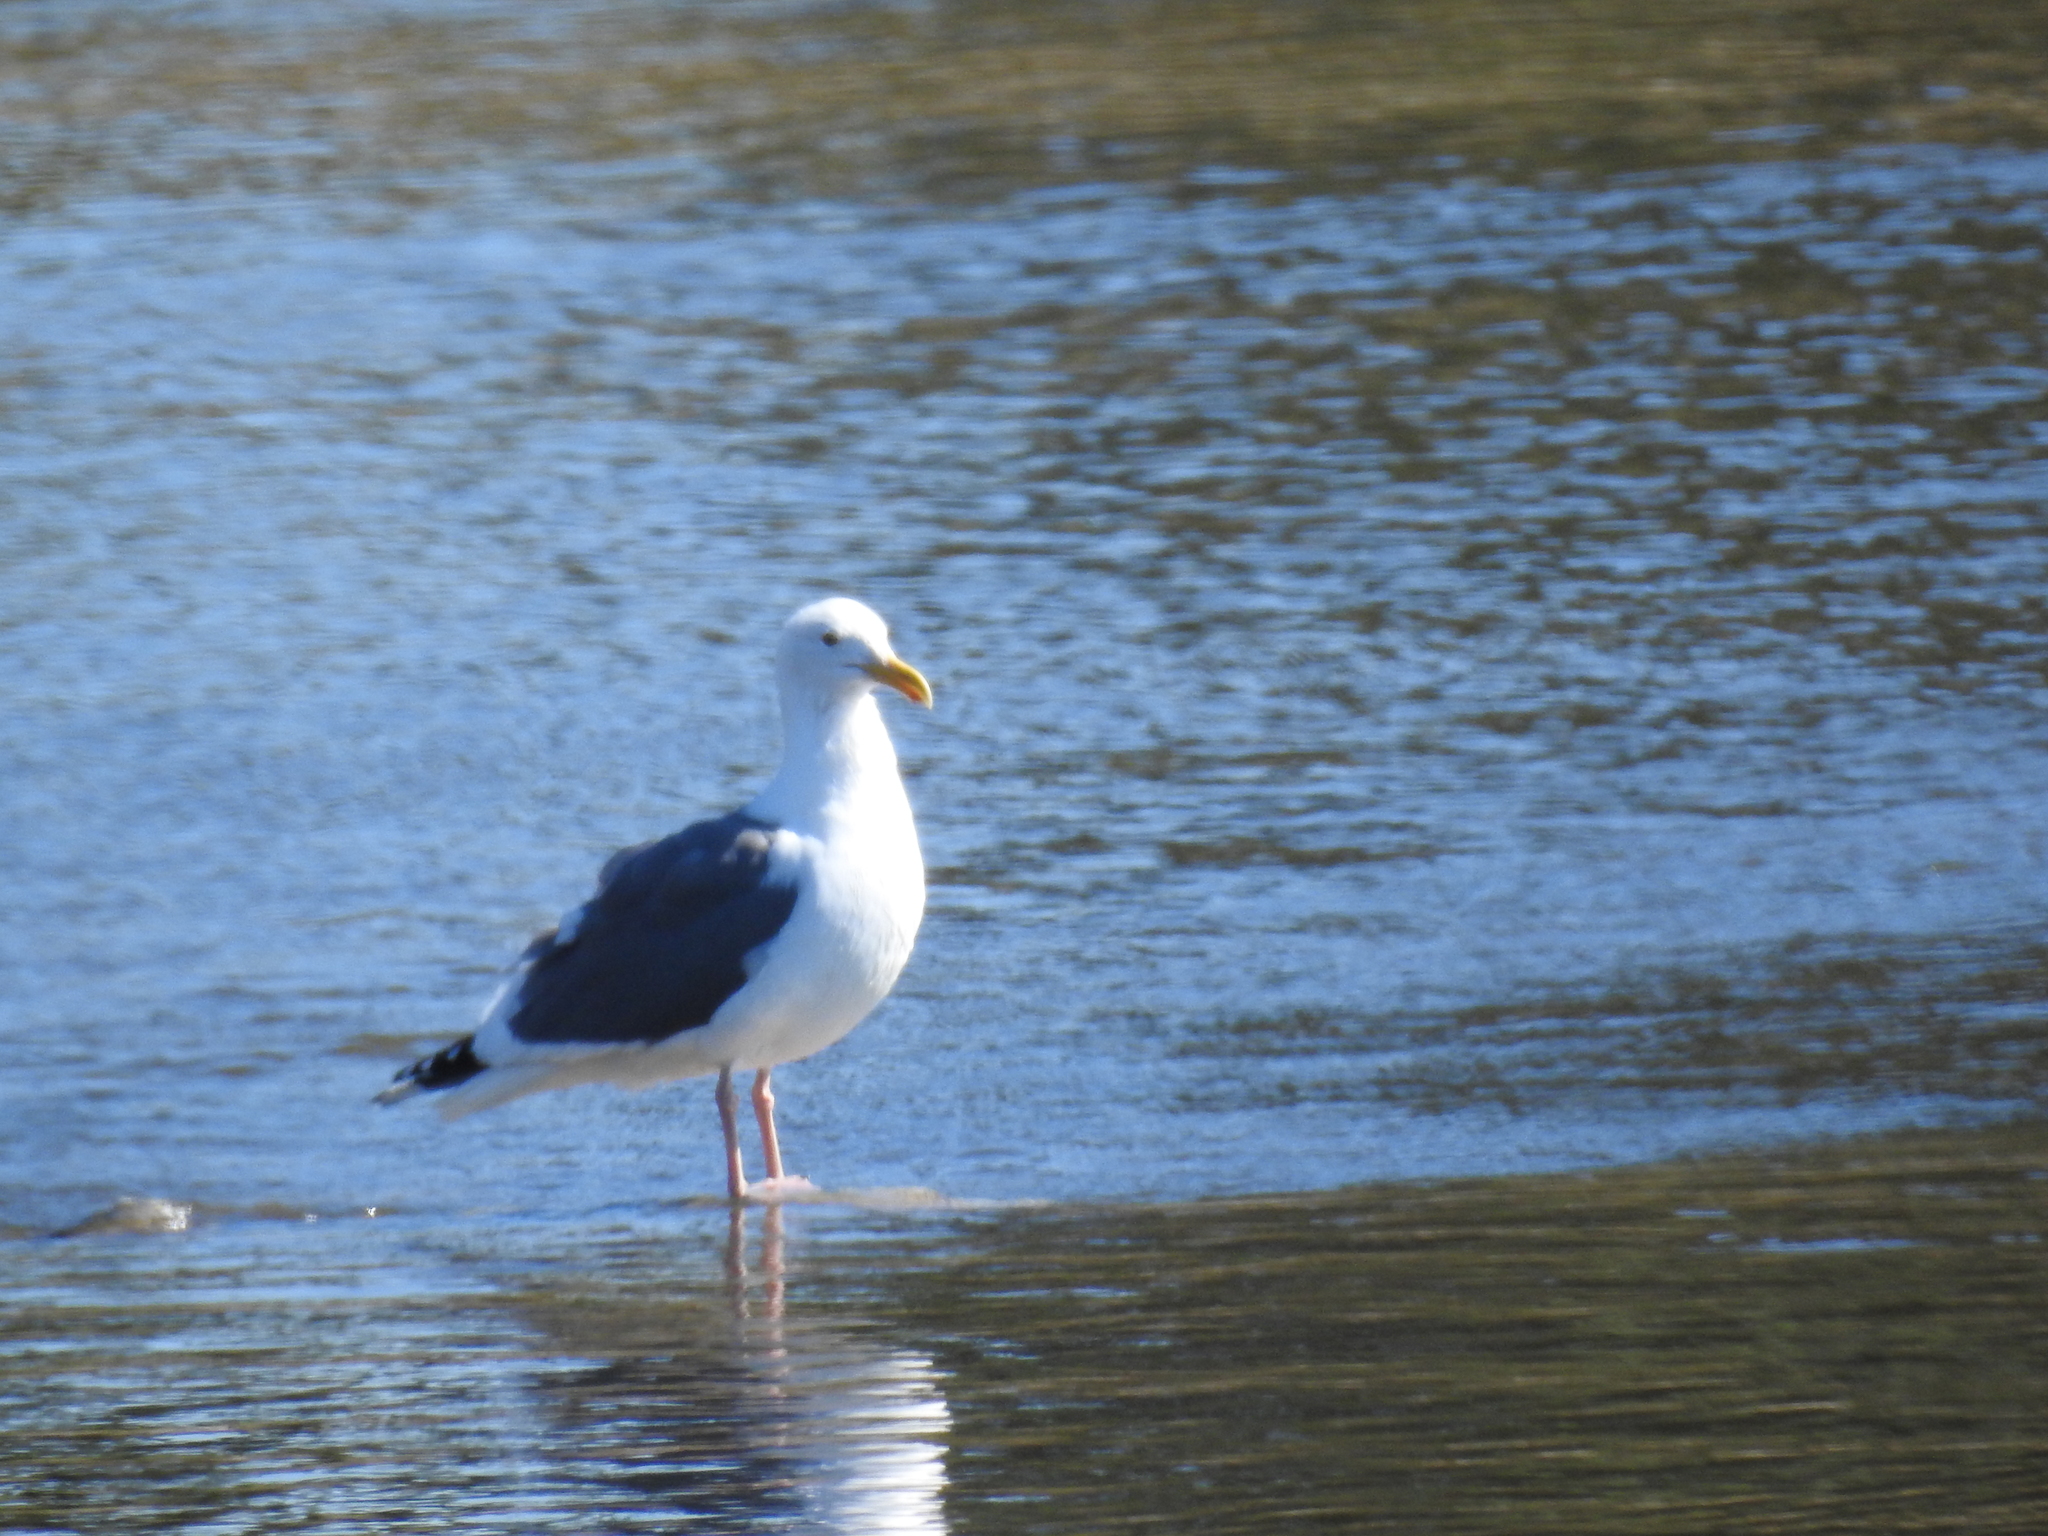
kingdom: Animalia
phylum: Chordata
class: Aves
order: Charadriiformes
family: Laridae
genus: Larus
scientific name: Larus occidentalis
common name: Western gull
